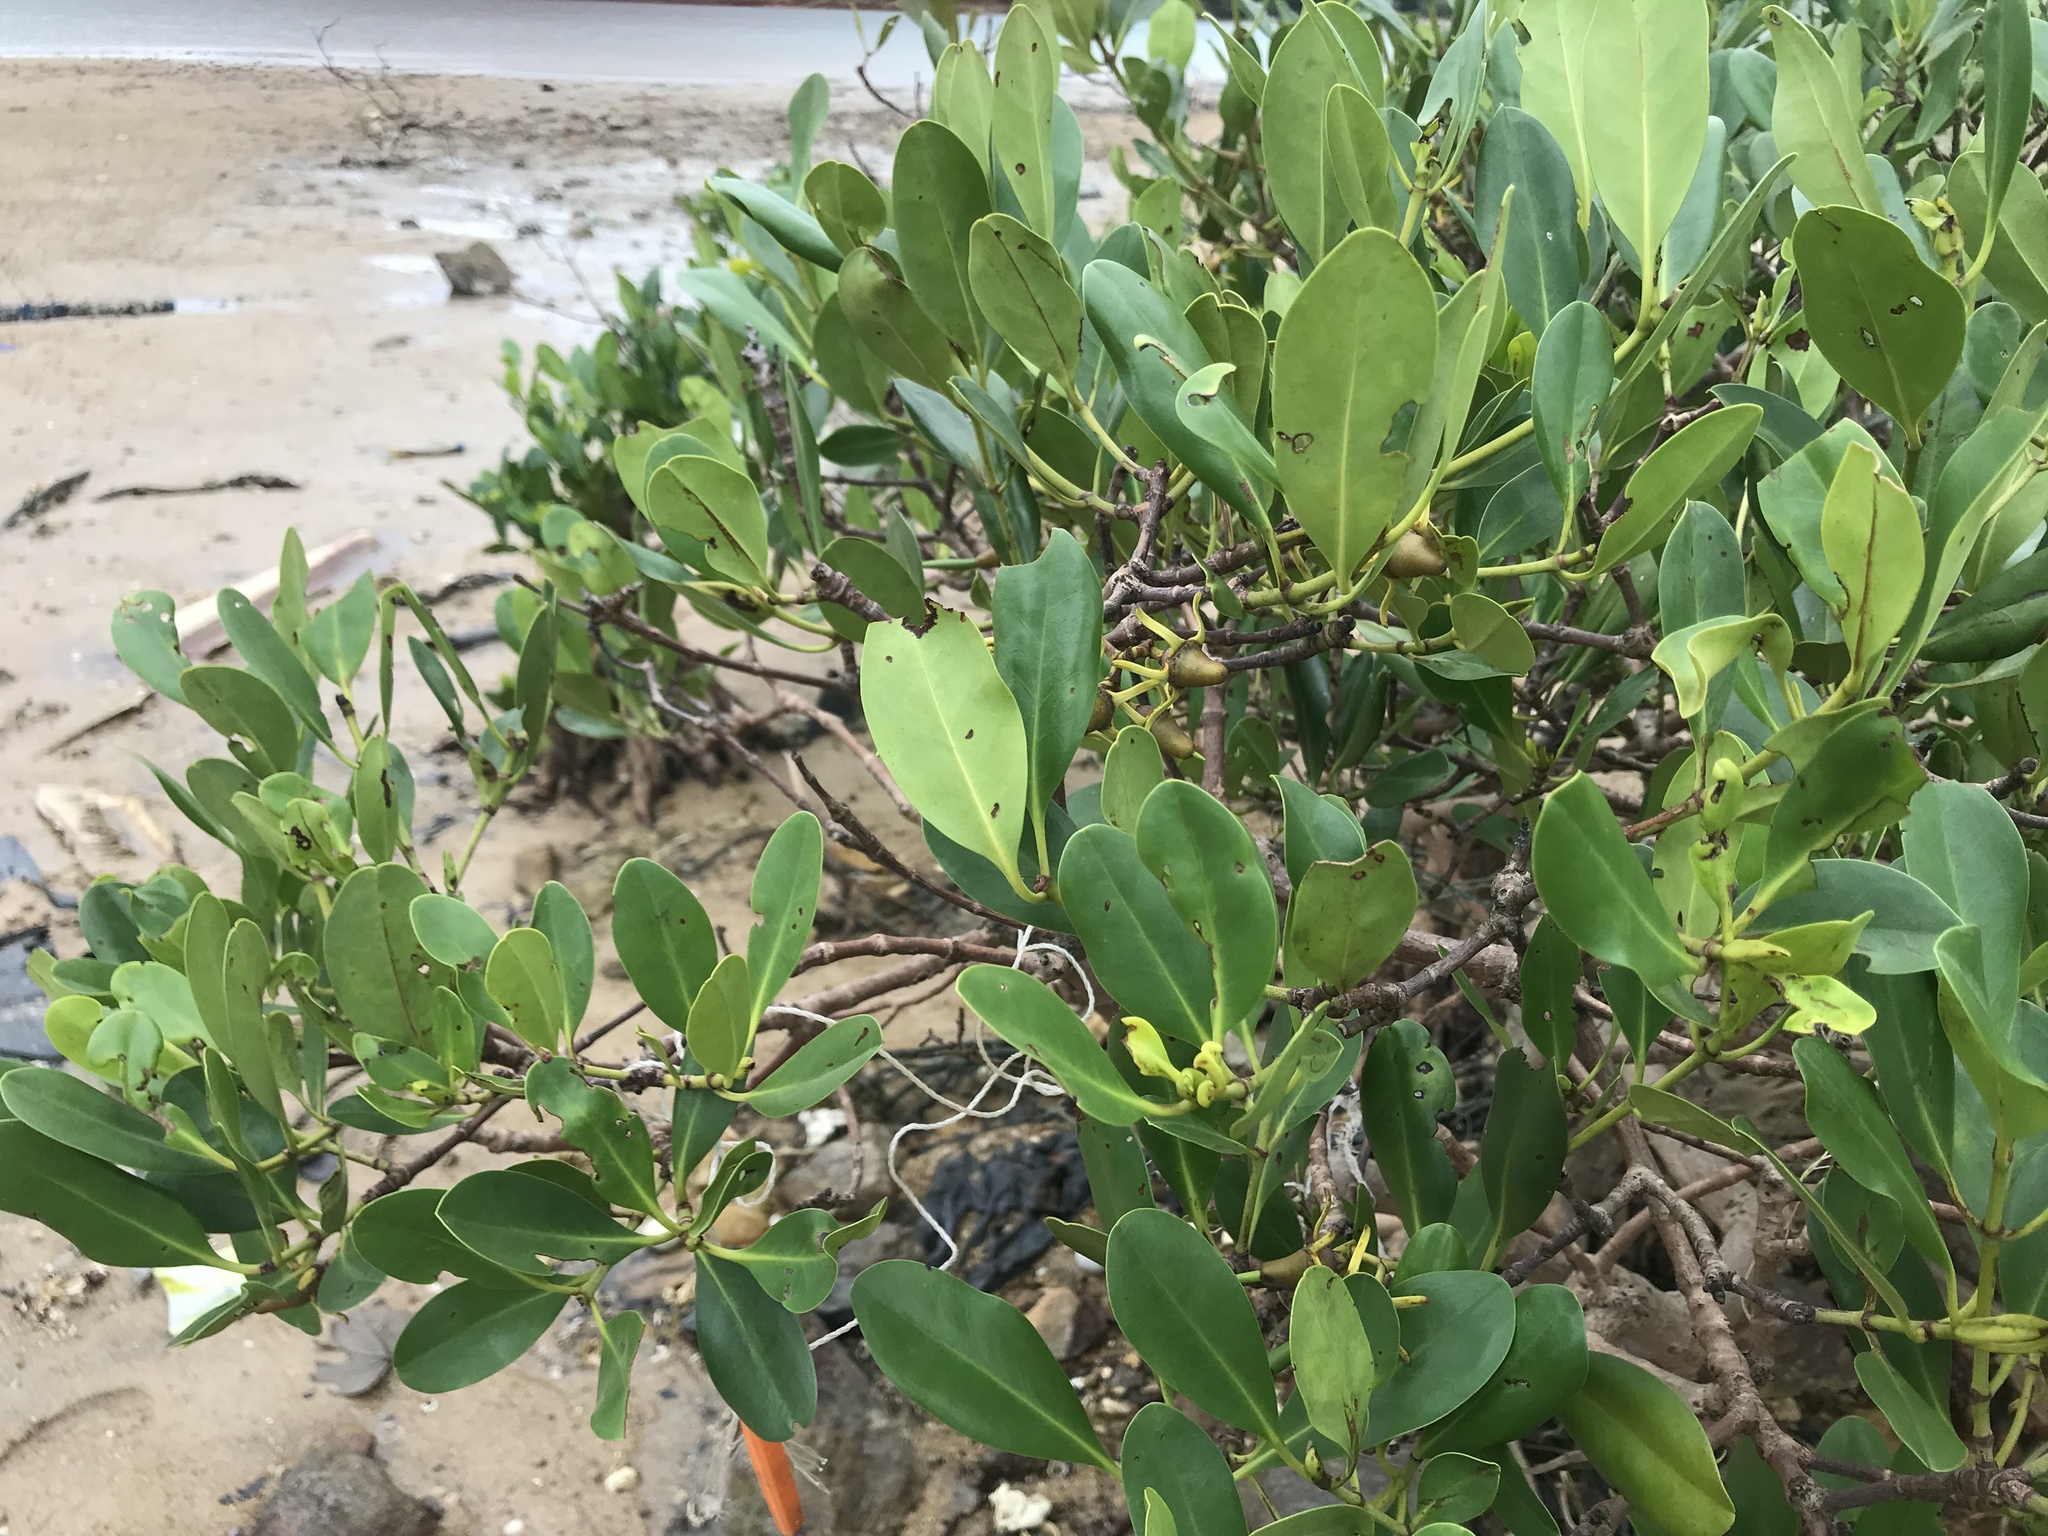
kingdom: Plantae
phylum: Tracheophyta
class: Magnoliopsida
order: Malpighiales
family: Rhizophoraceae
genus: Kandelia
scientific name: Kandelia obovata
